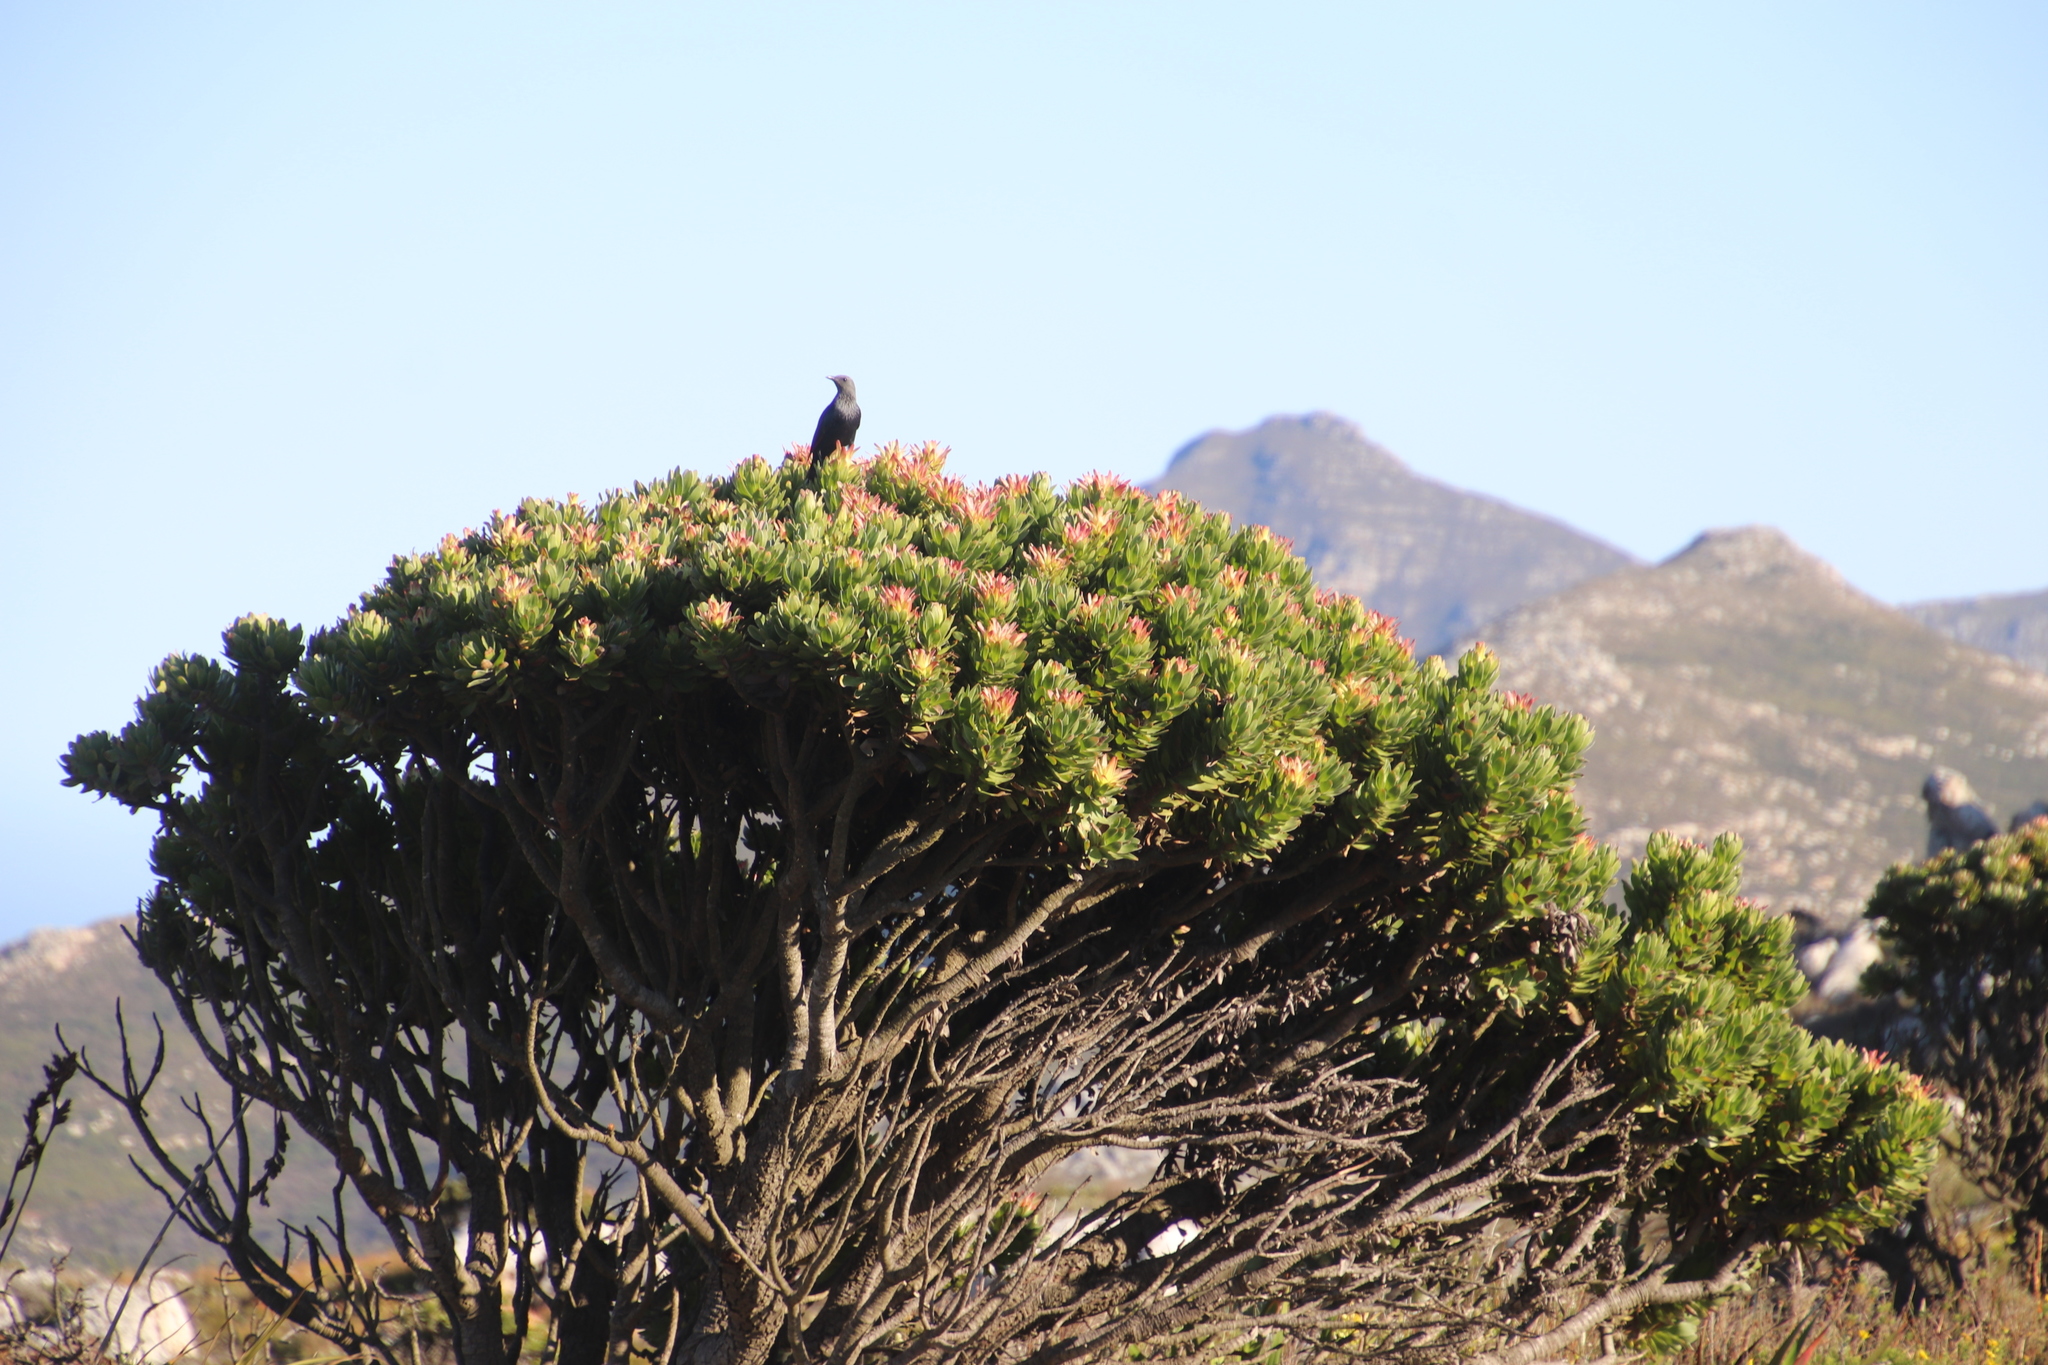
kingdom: Animalia
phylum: Chordata
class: Aves
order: Passeriformes
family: Sturnidae
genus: Onychognathus
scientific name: Onychognathus morio
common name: Red-winged starling
